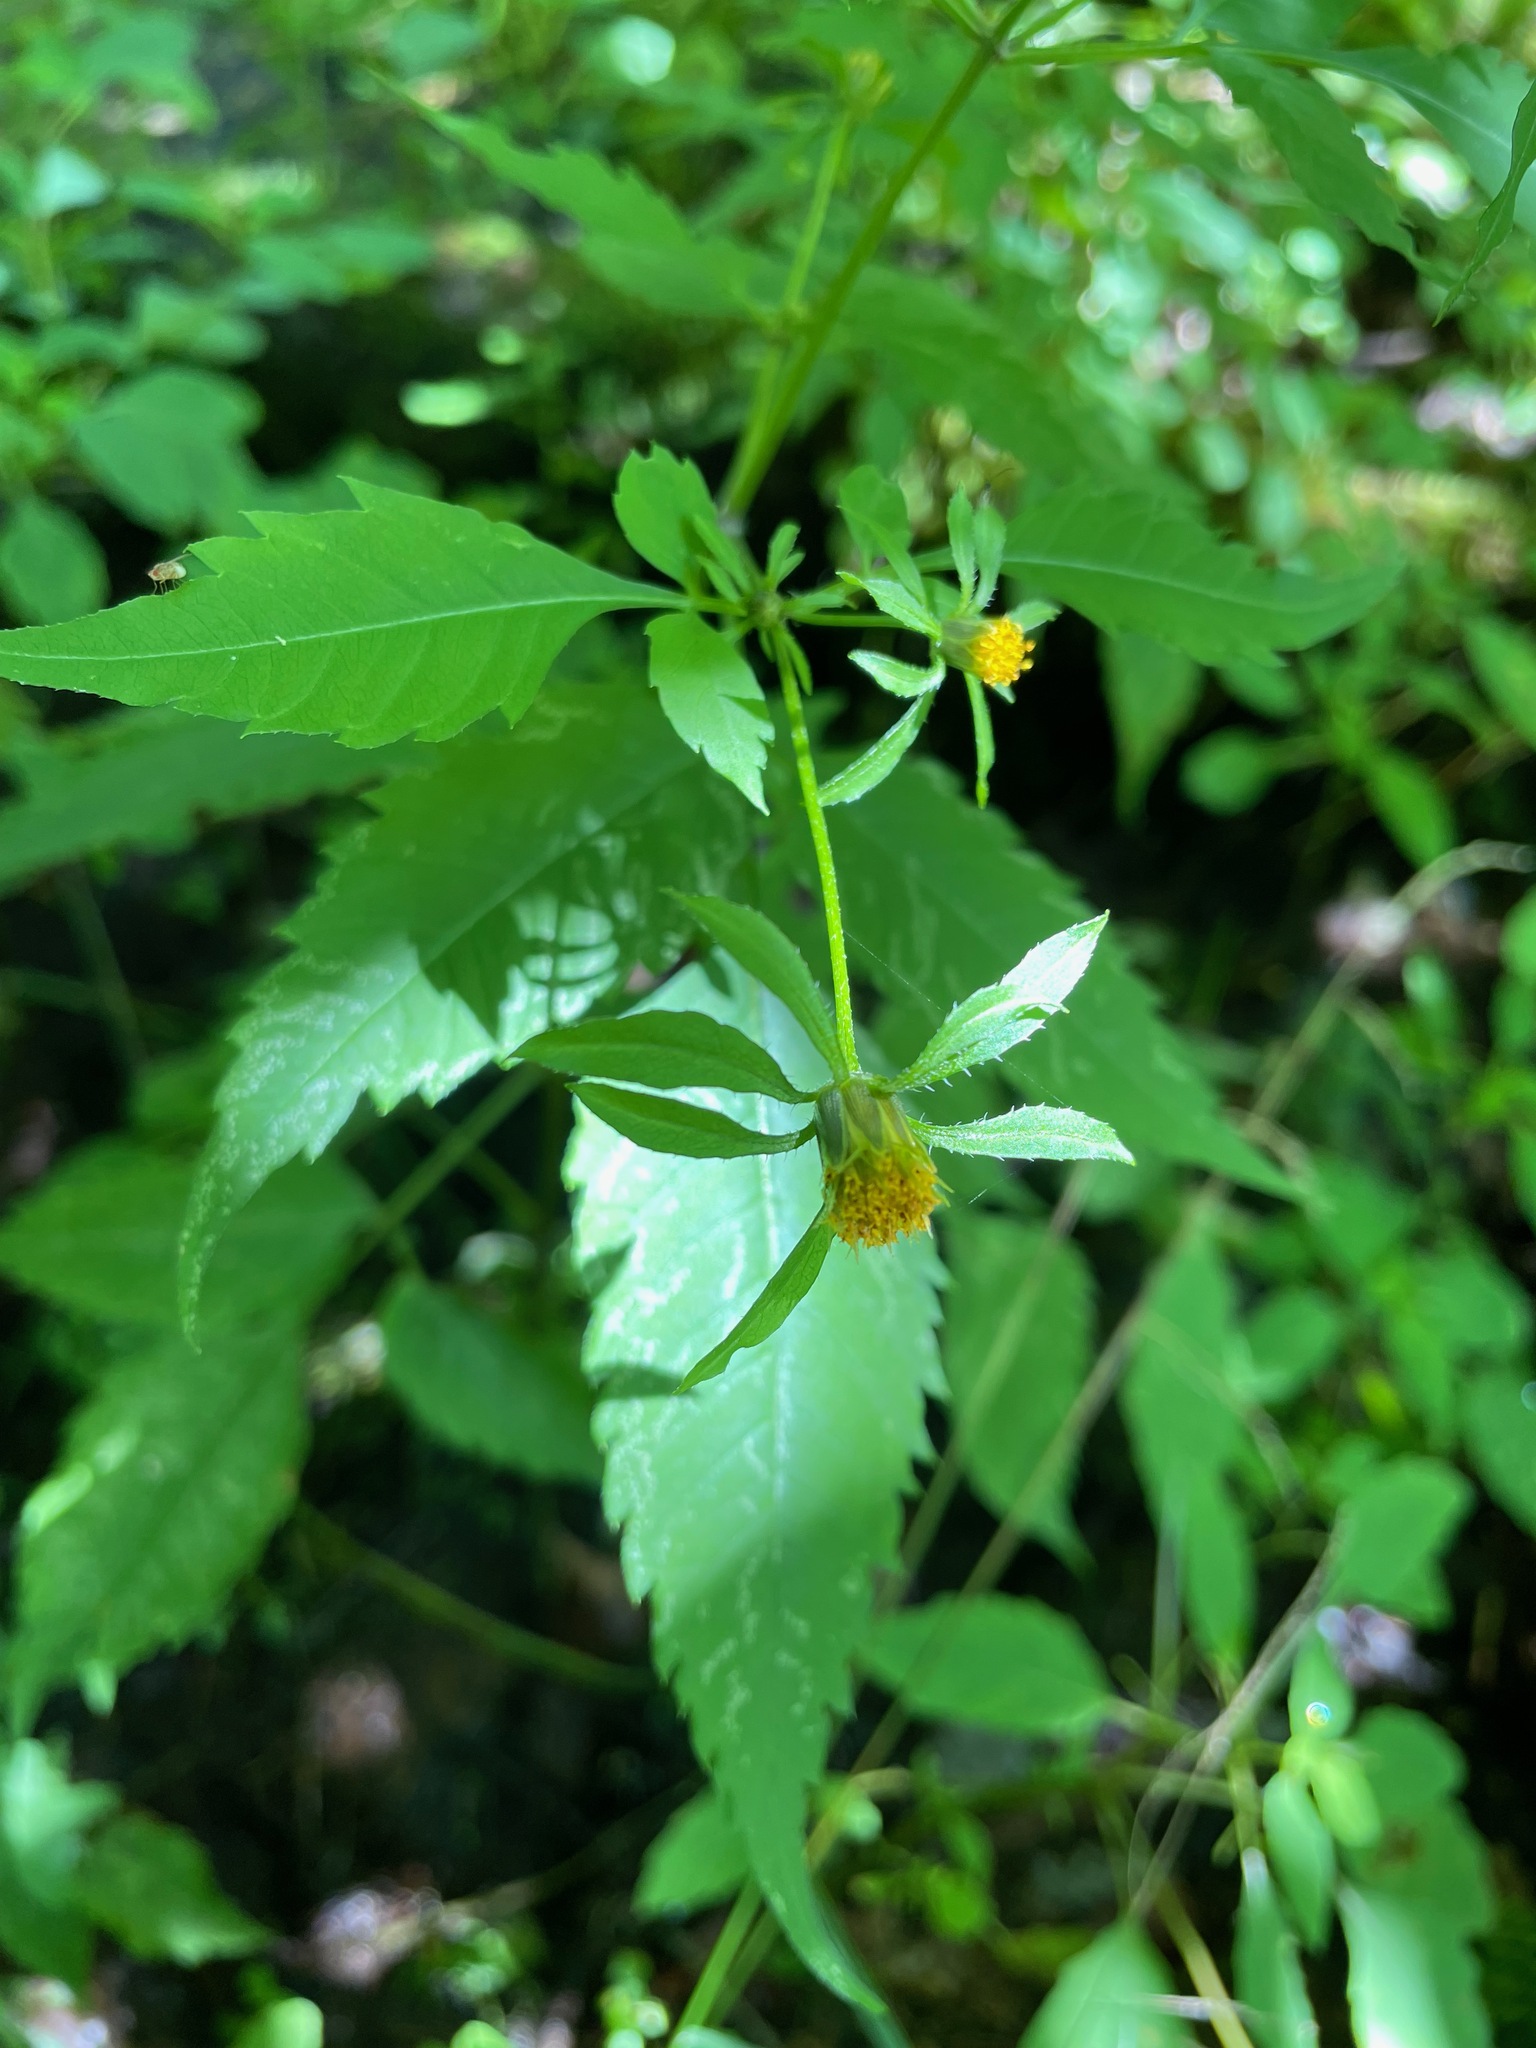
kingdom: Plantae
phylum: Tracheophyta
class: Magnoliopsida
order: Asterales
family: Asteraceae
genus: Bidens
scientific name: Bidens frondosa
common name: Beggarticks
